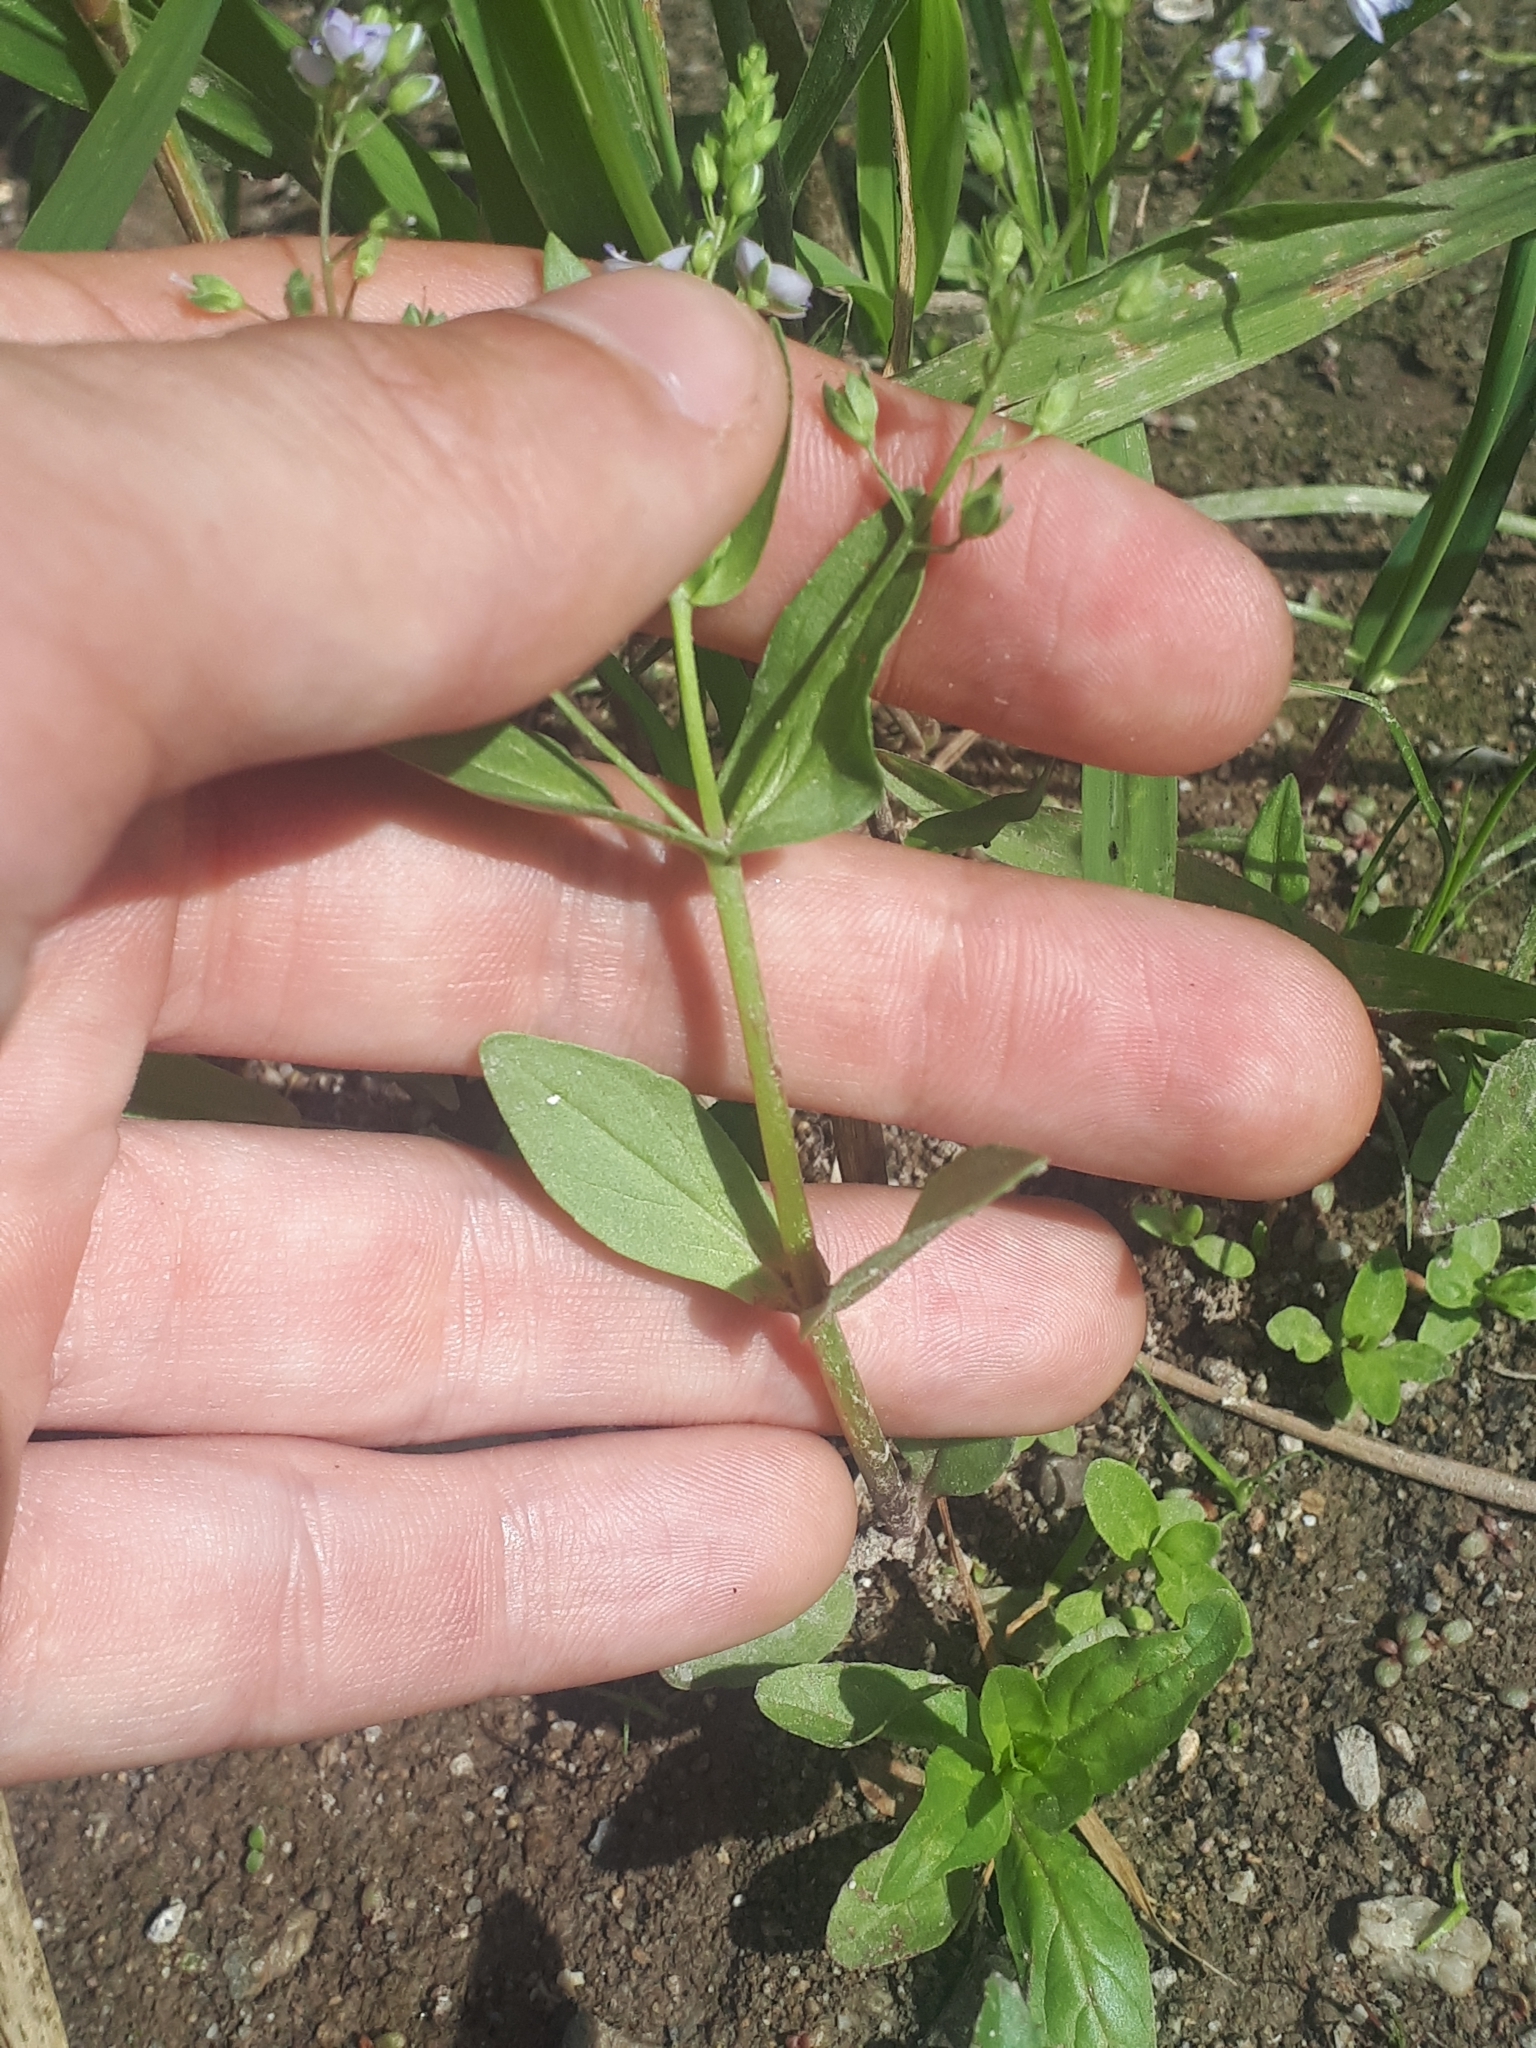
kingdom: Plantae
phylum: Tracheophyta
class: Magnoliopsida
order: Lamiales
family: Plantaginaceae
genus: Veronica
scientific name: Veronica anagallis-aquatica
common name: Water speedwell
